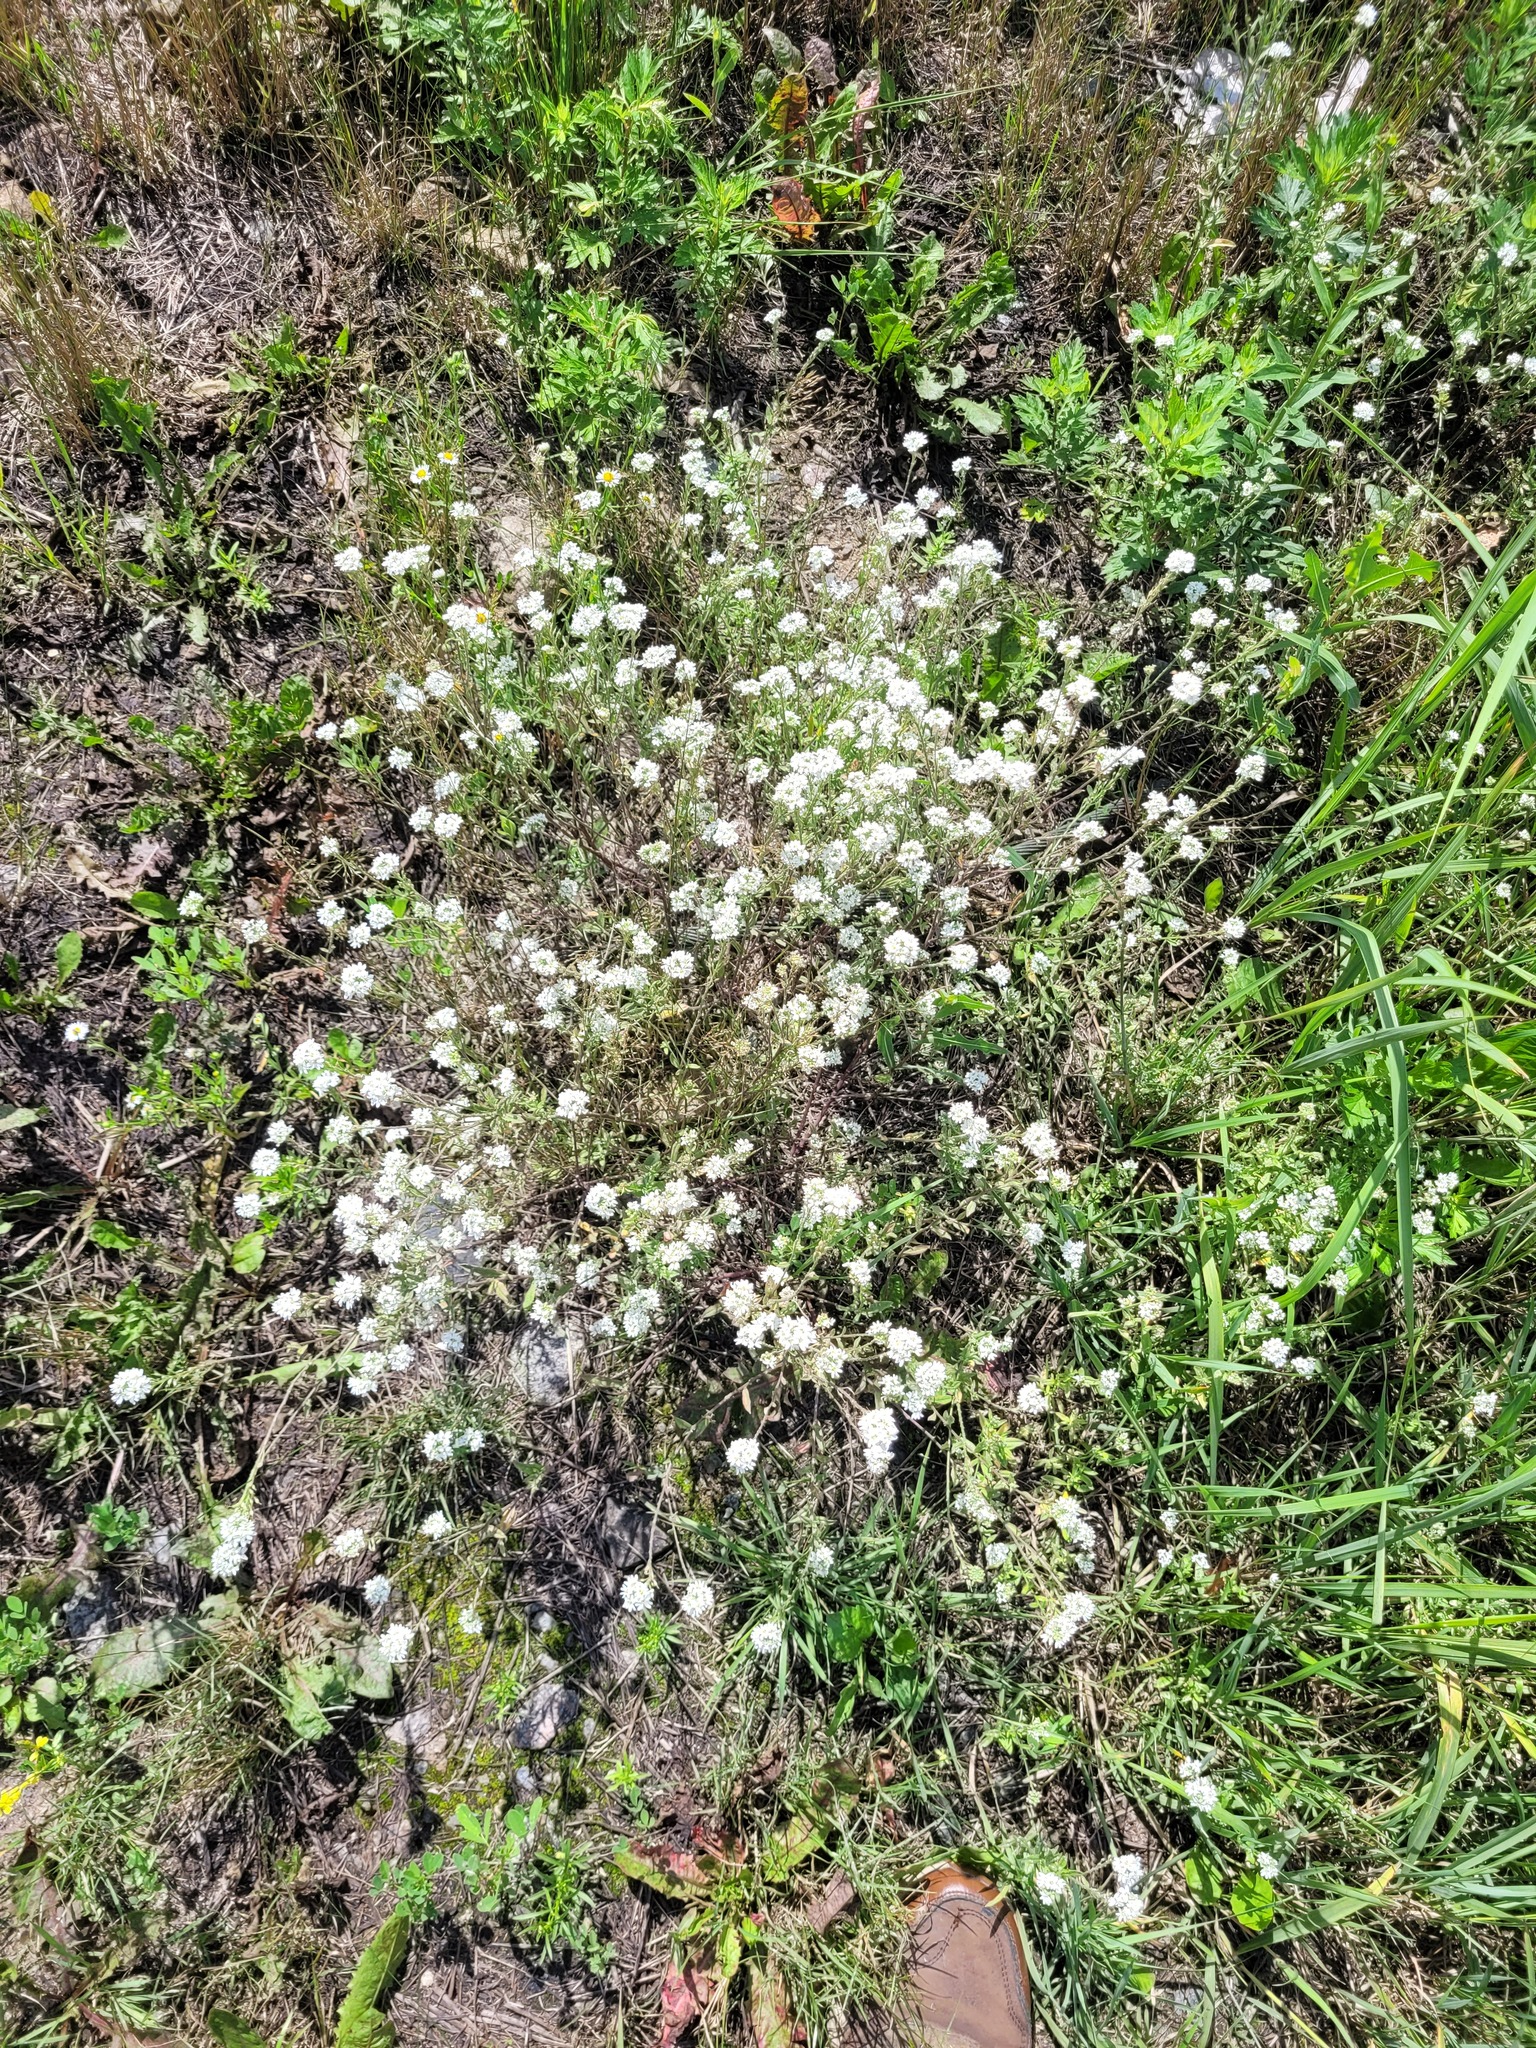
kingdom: Plantae
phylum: Tracheophyta
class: Magnoliopsida
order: Brassicales
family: Brassicaceae
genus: Berteroa
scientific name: Berteroa incana
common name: Hoary alison
